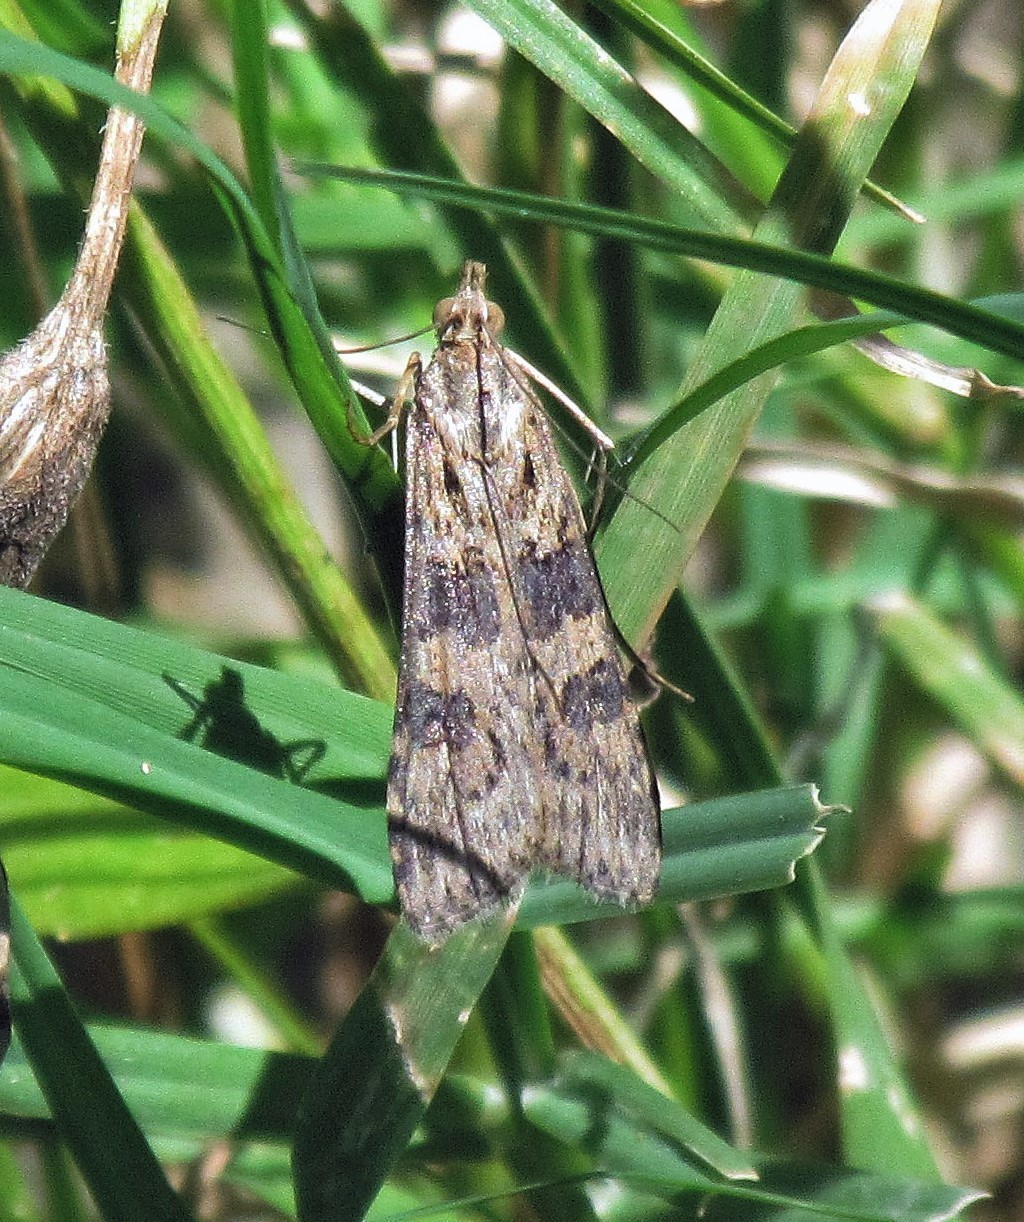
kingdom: Animalia
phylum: Arthropoda
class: Insecta
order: Lepidoptera
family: Crambidae
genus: Nomophila
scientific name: Nomophila
